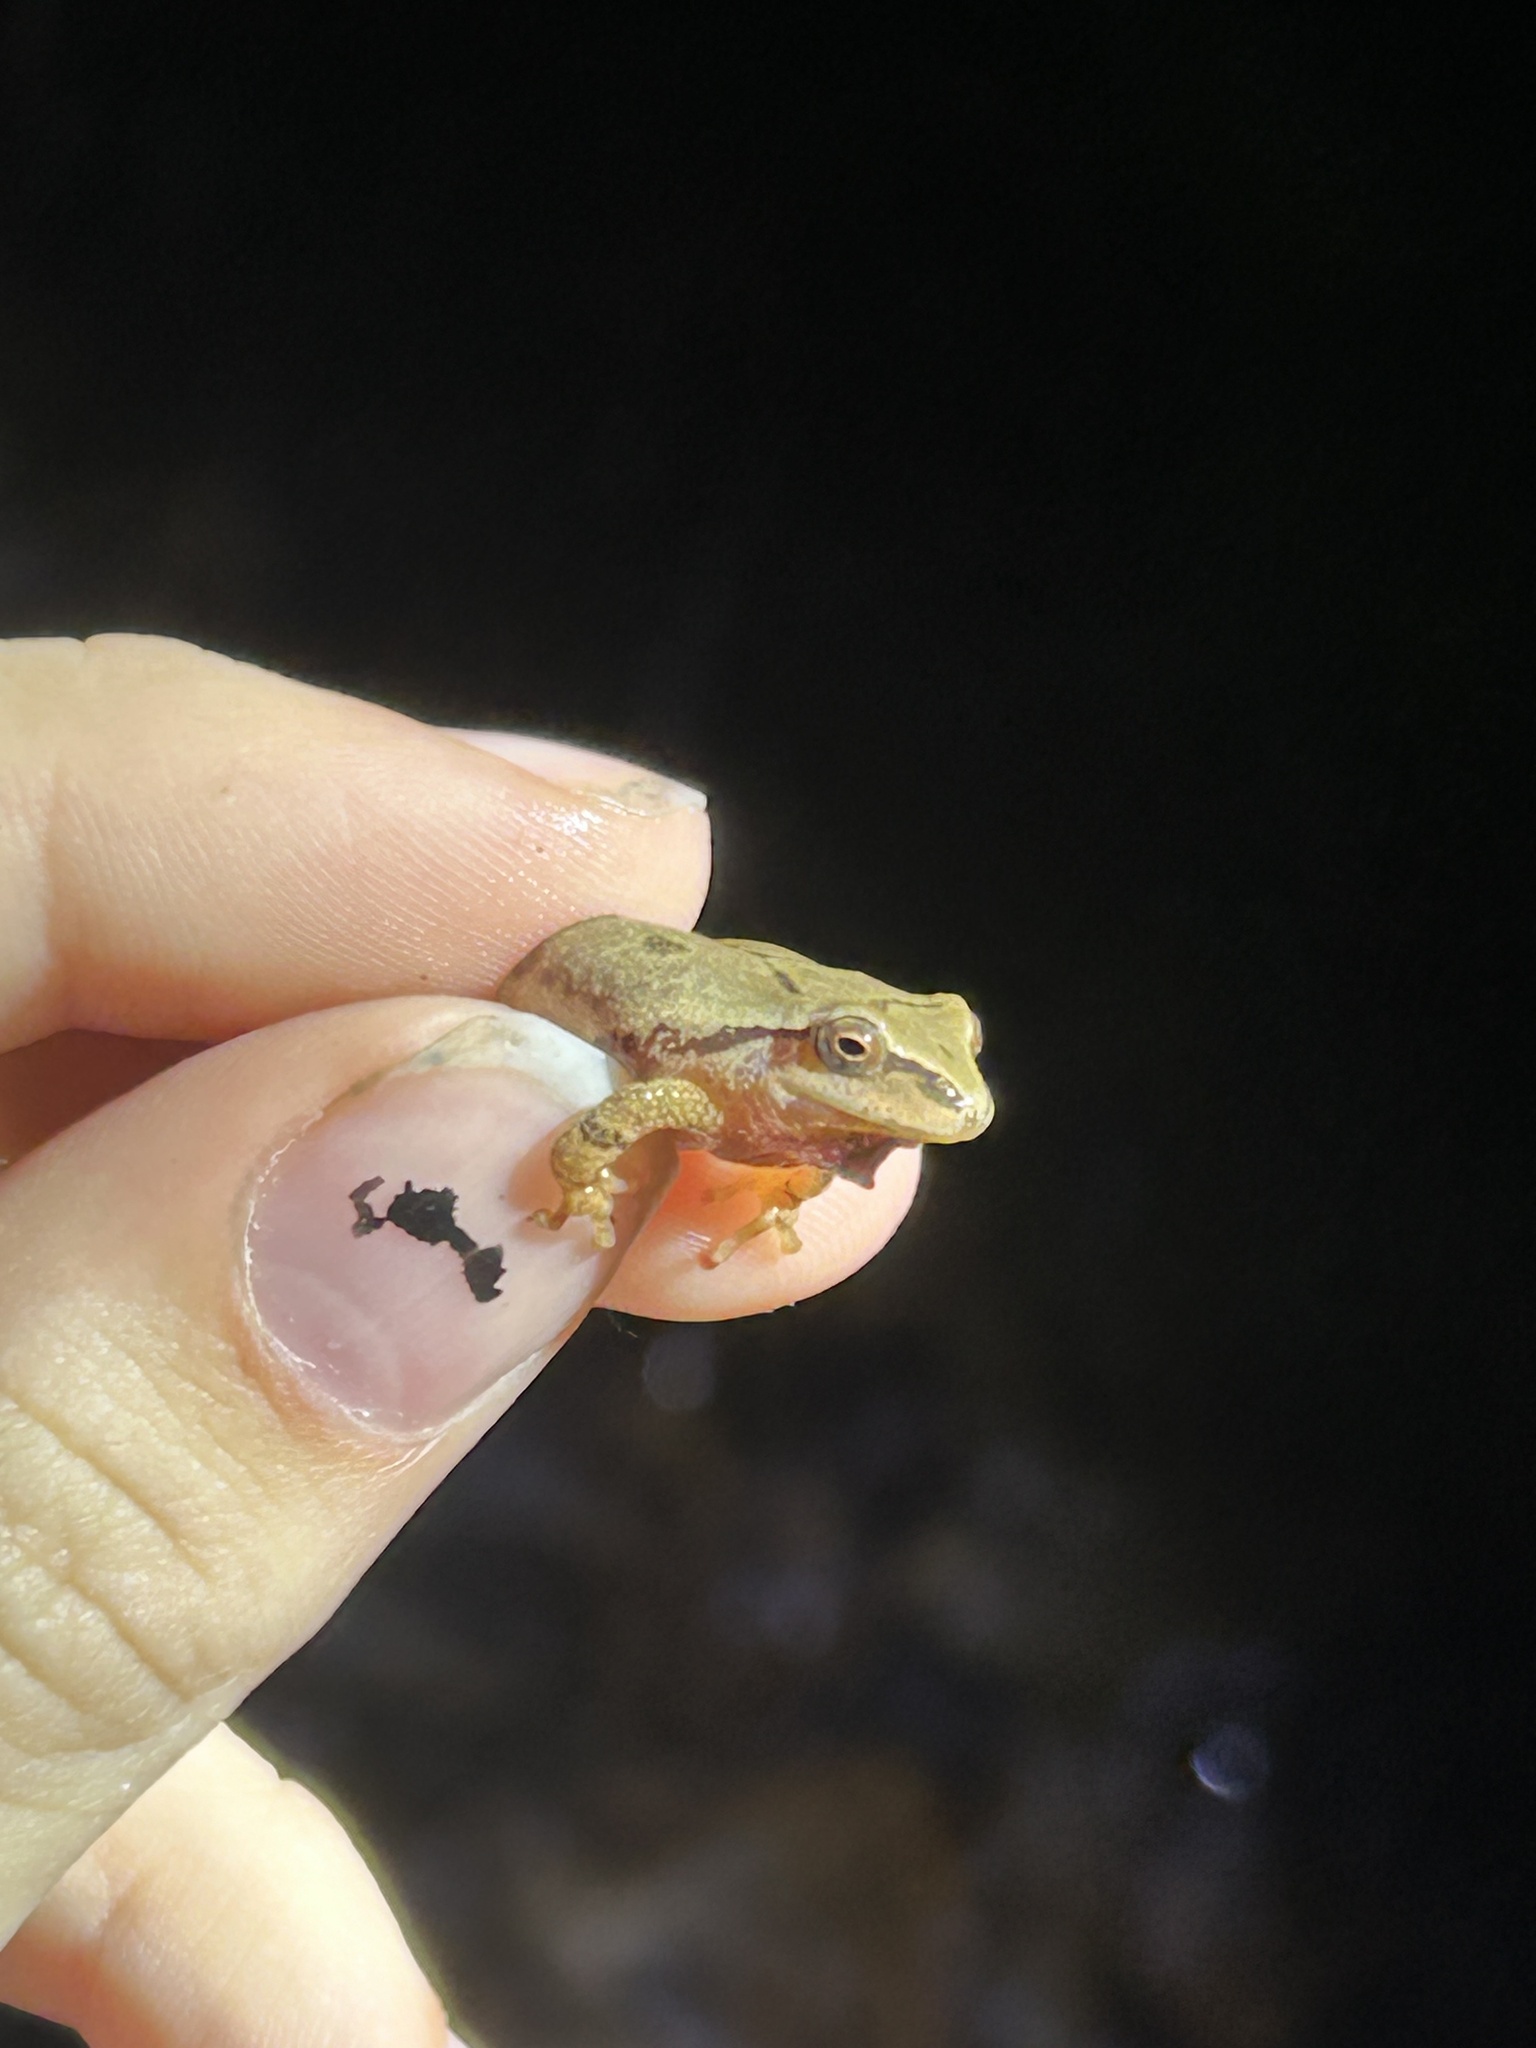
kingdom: Animalia
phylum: Chordata
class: Amphibia
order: Anura
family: Hylidae
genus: Pseudacris
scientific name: Pseudacris crucifer
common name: Spring peeper
